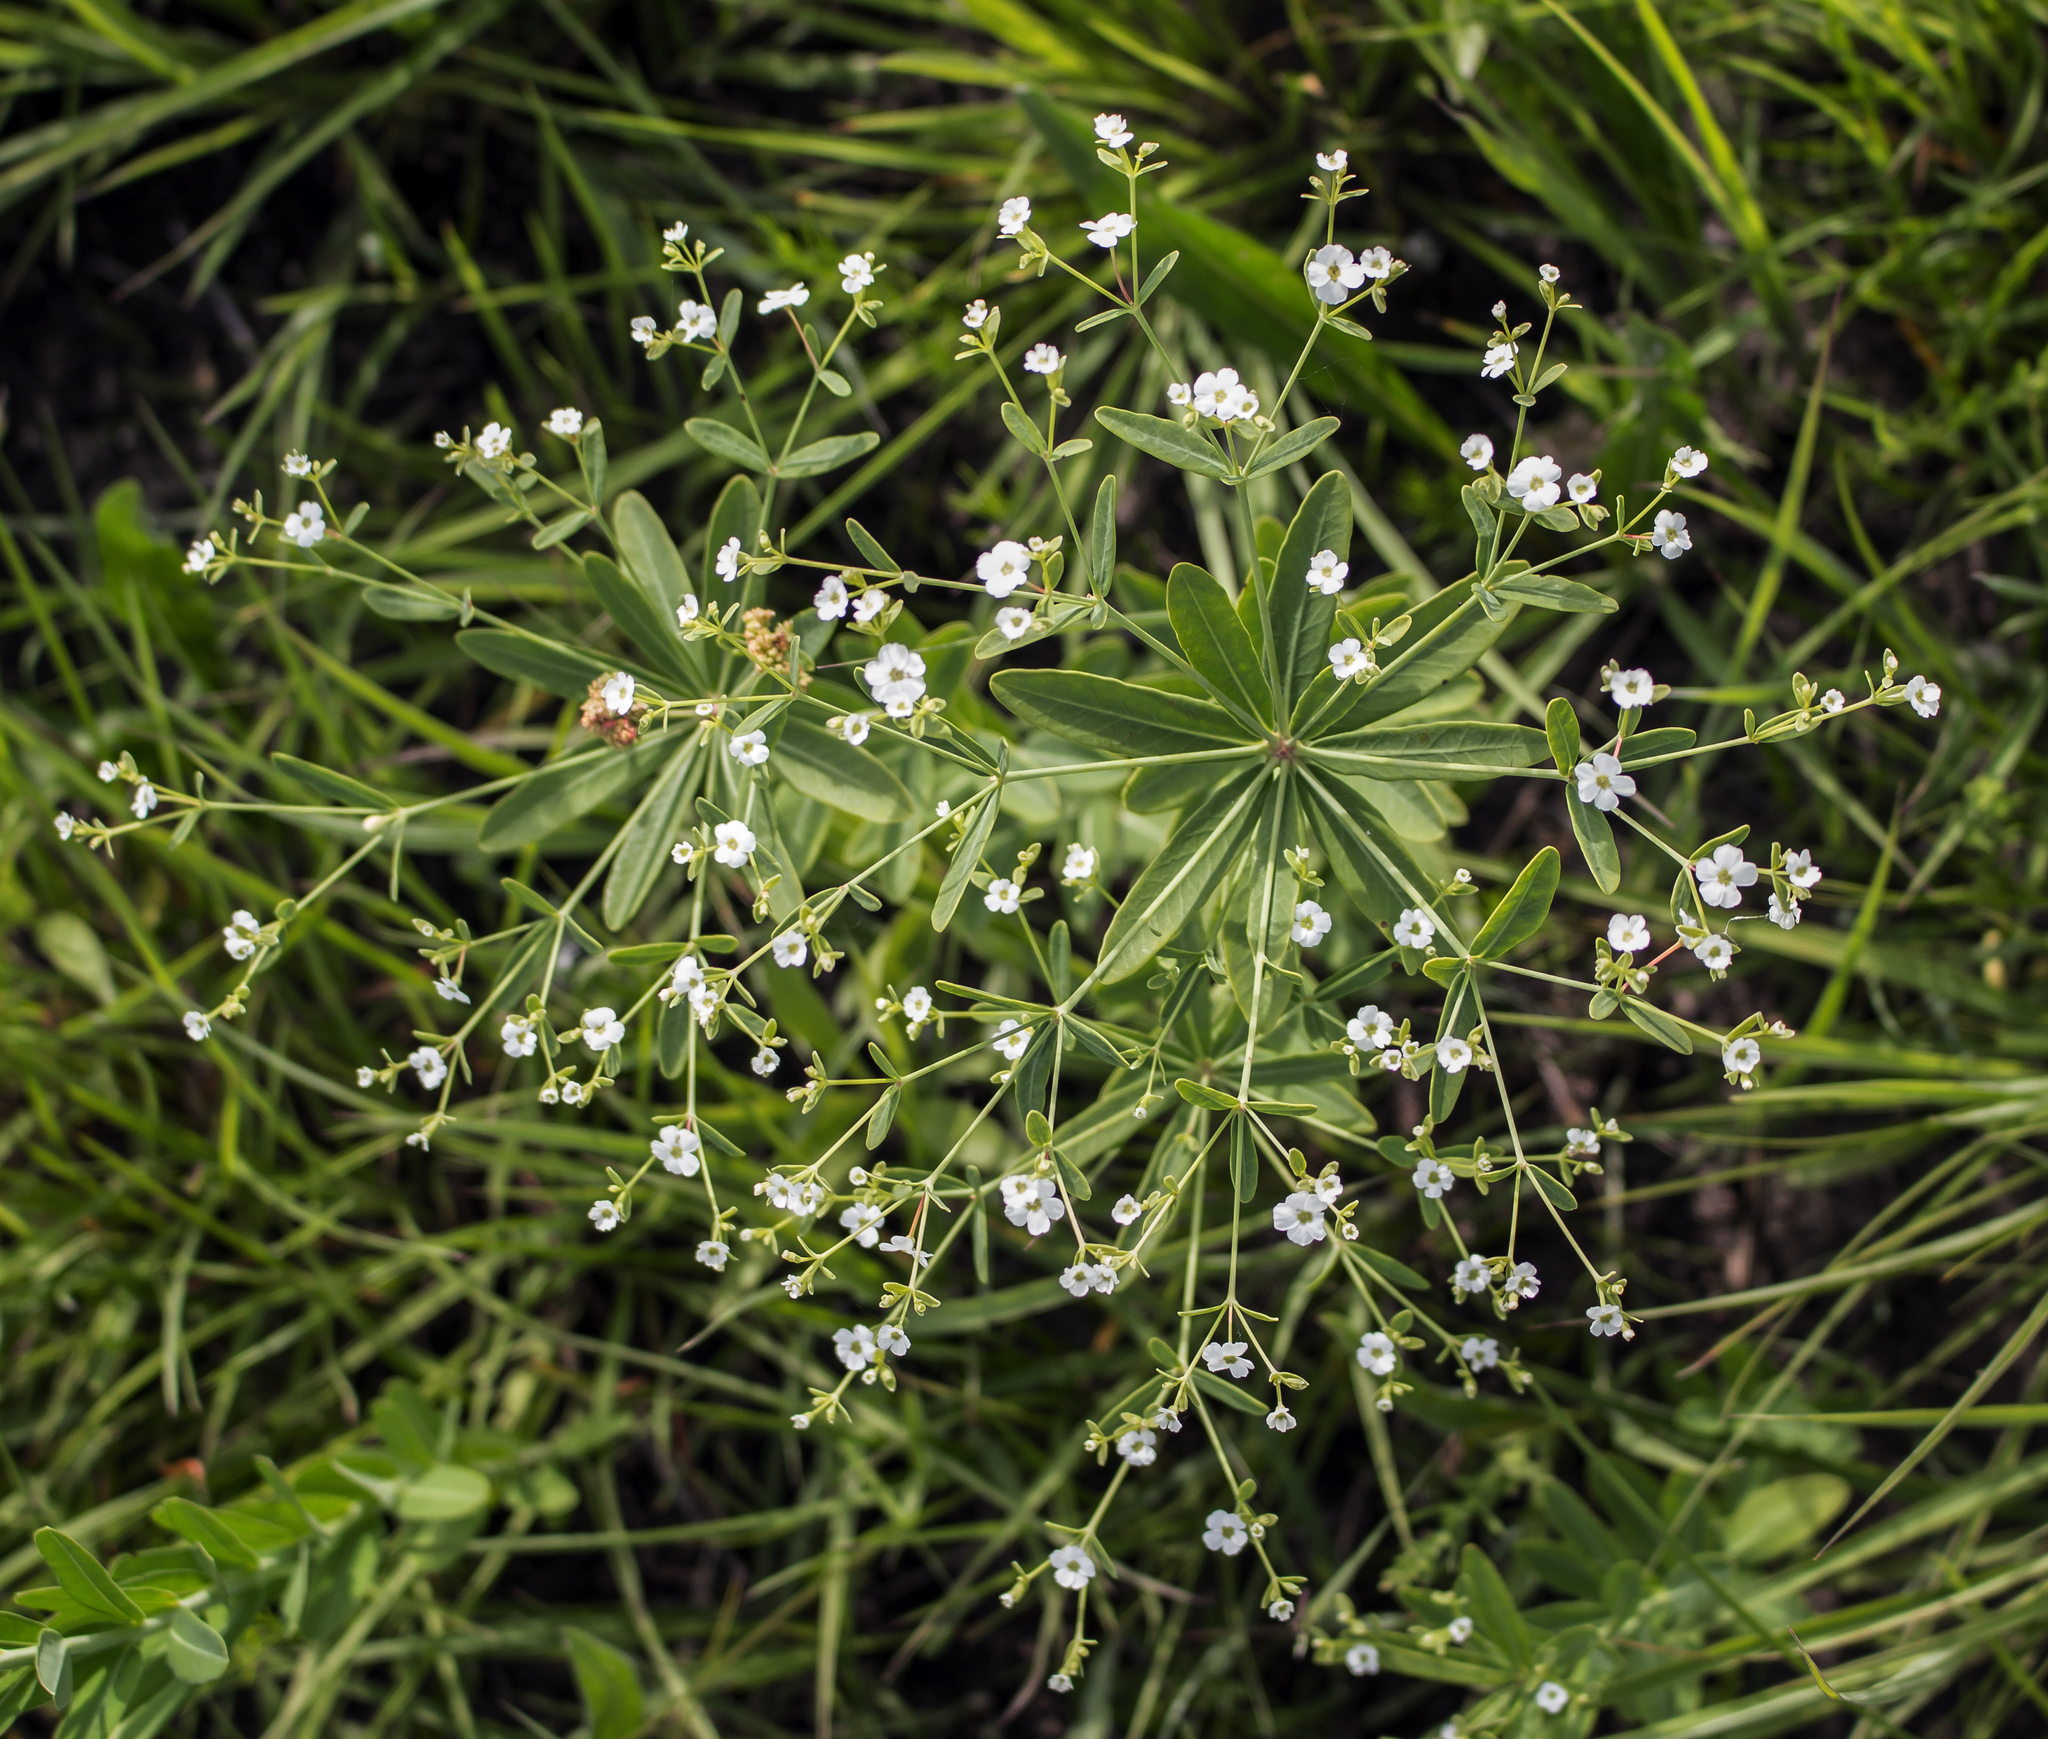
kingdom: Plantae
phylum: Tracheophyta
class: Magnoliopsida
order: Malpighiales
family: Euphorbiaceae
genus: Euphorbia
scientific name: Euphorbia corollata
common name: Flowering spurge
